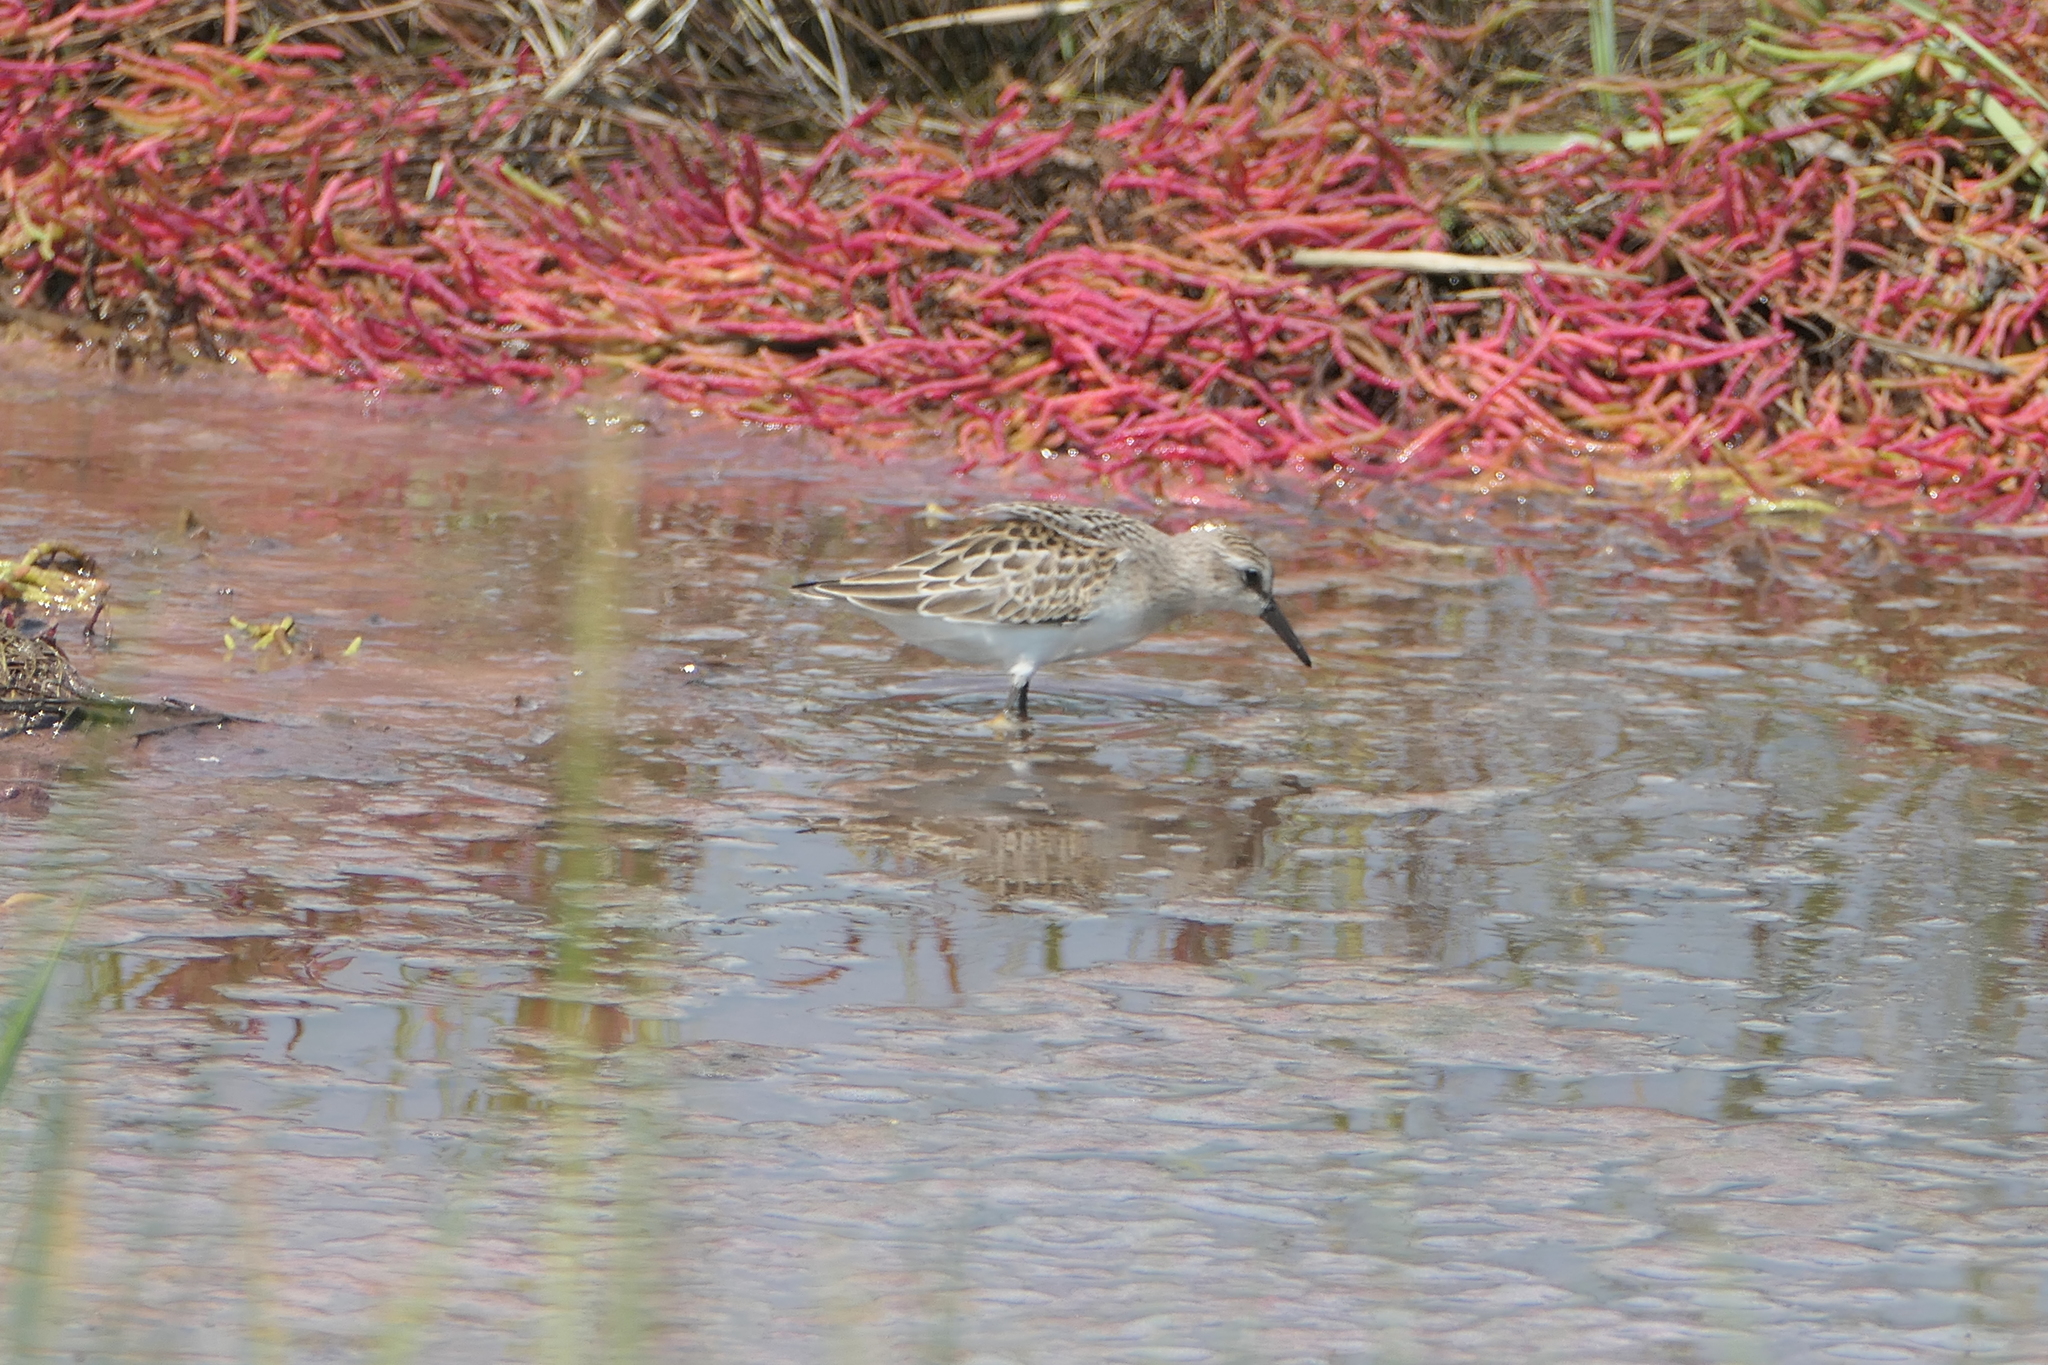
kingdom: Animalia
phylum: Chordata
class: Aves
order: Charadriiformes
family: Scolopacidae
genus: Calidris
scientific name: Calidris pusilla
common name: Semipalmated sandpiper
